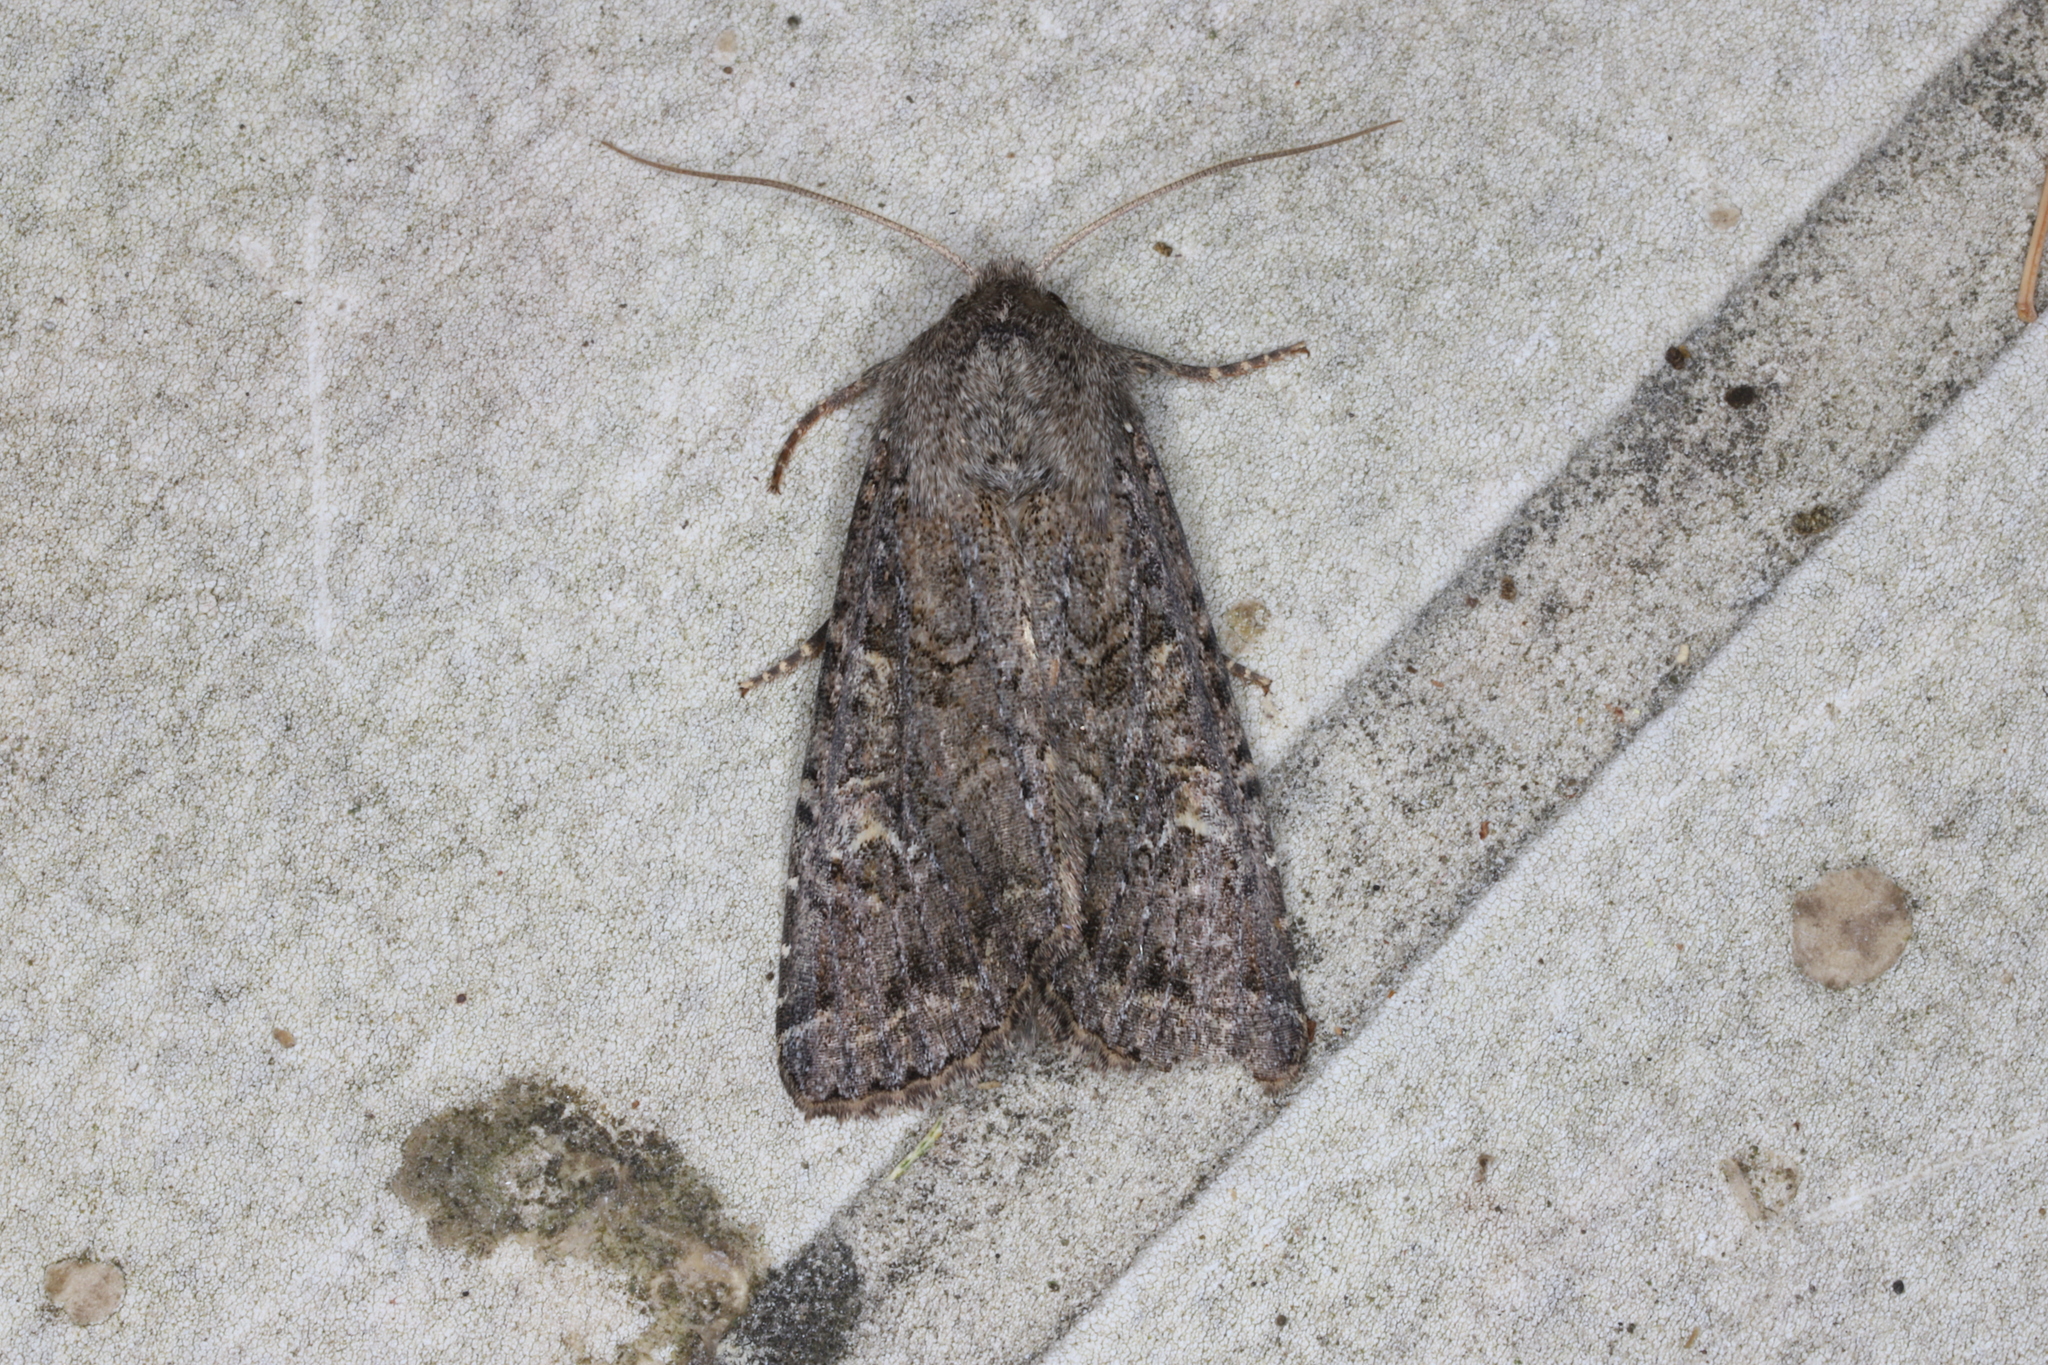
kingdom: Animalia
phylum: Arthropoda
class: Insecta
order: Lepidoptera
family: Noctuidae
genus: Apamea
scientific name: Apamea devastator
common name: Glassy cutworm
